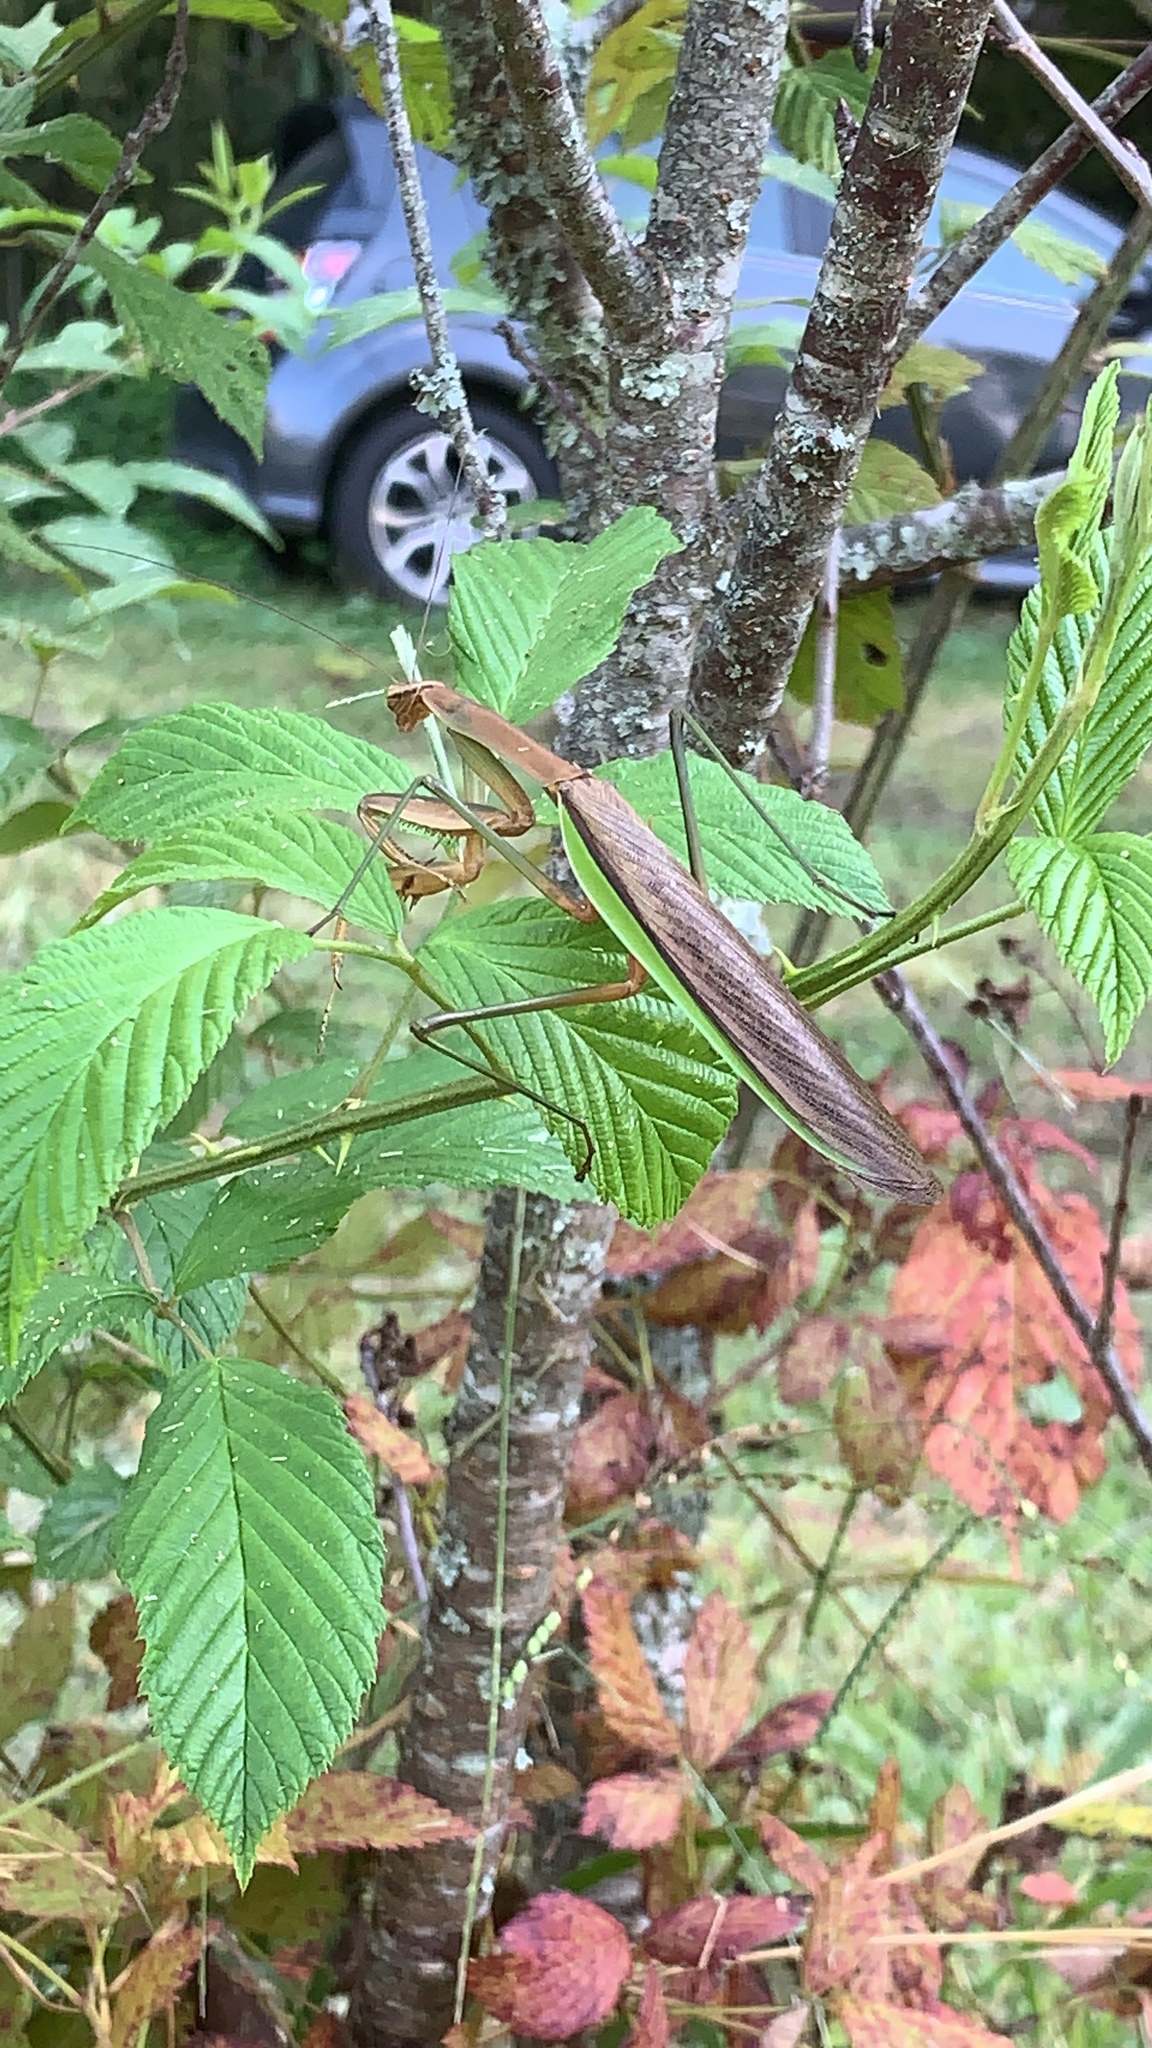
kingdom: Animalia
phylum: Arthropoda
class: Insecta
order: Mantodea
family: Mantidae
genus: Tenodera
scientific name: Tenodera sinensis
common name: Chinese mantis
